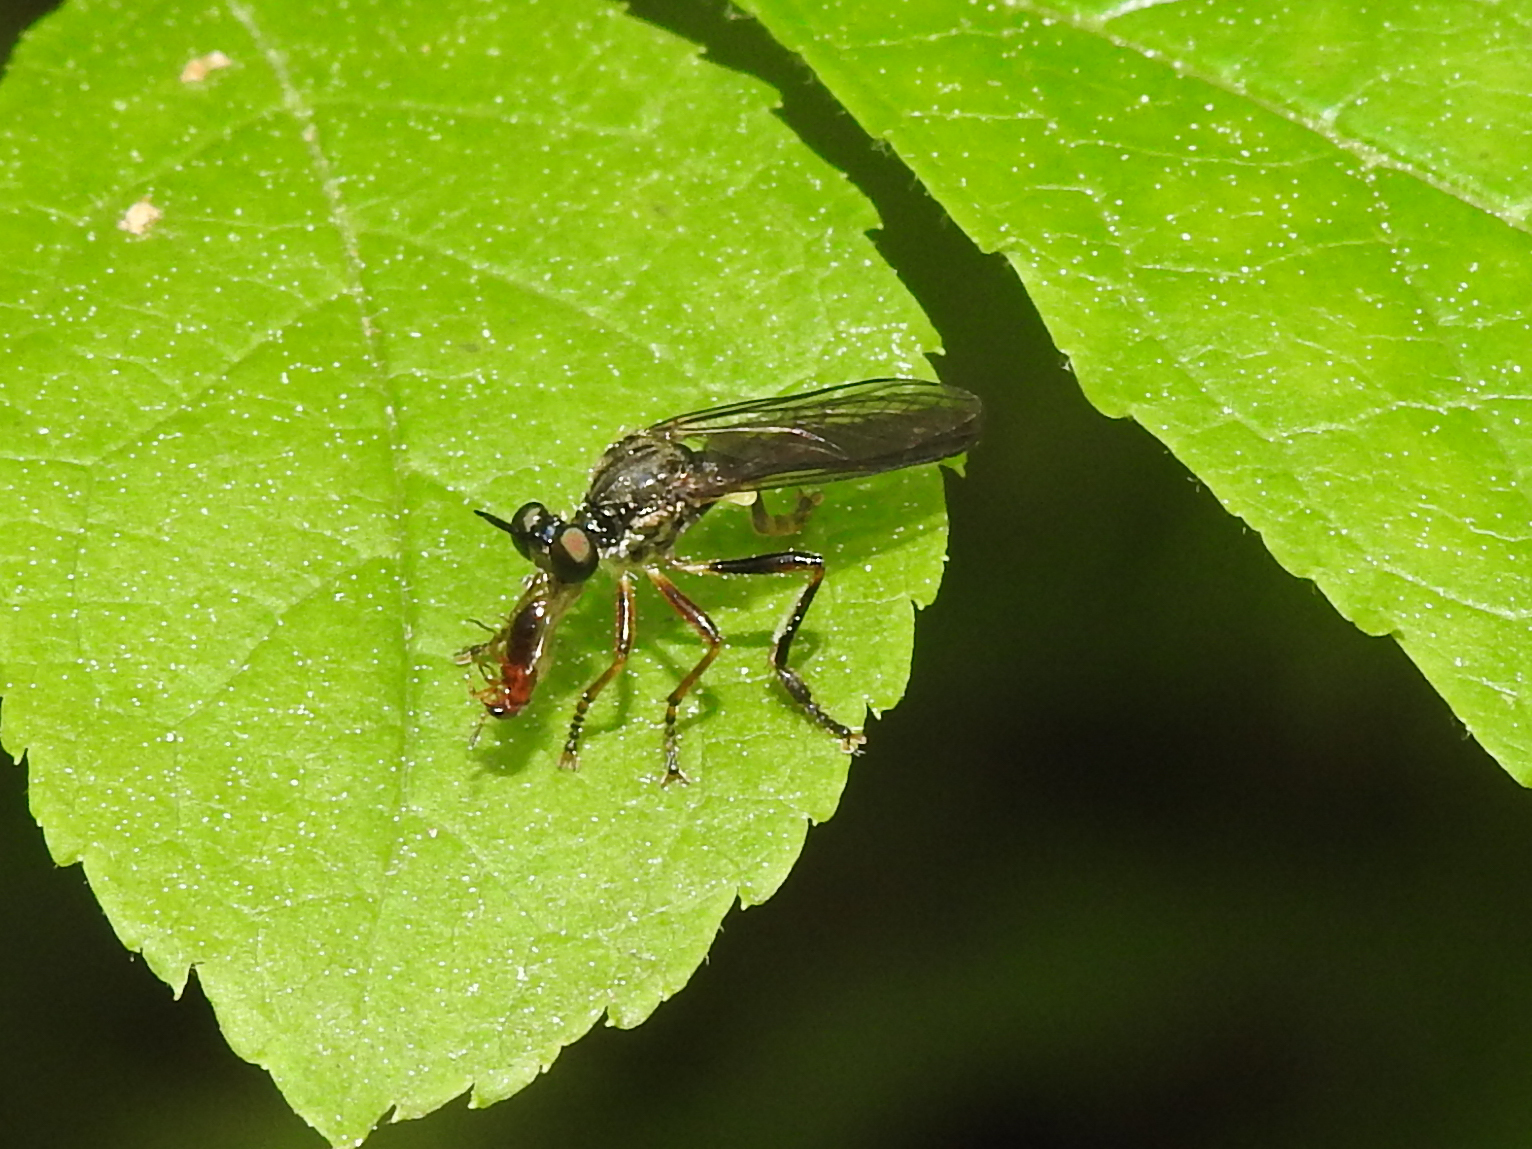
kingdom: Animalia
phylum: Arthropoda
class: Insecta
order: Diptera
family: Asilidae
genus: Dioctria
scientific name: Dioctria hyalipennis
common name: Stripe-legged robberfly
